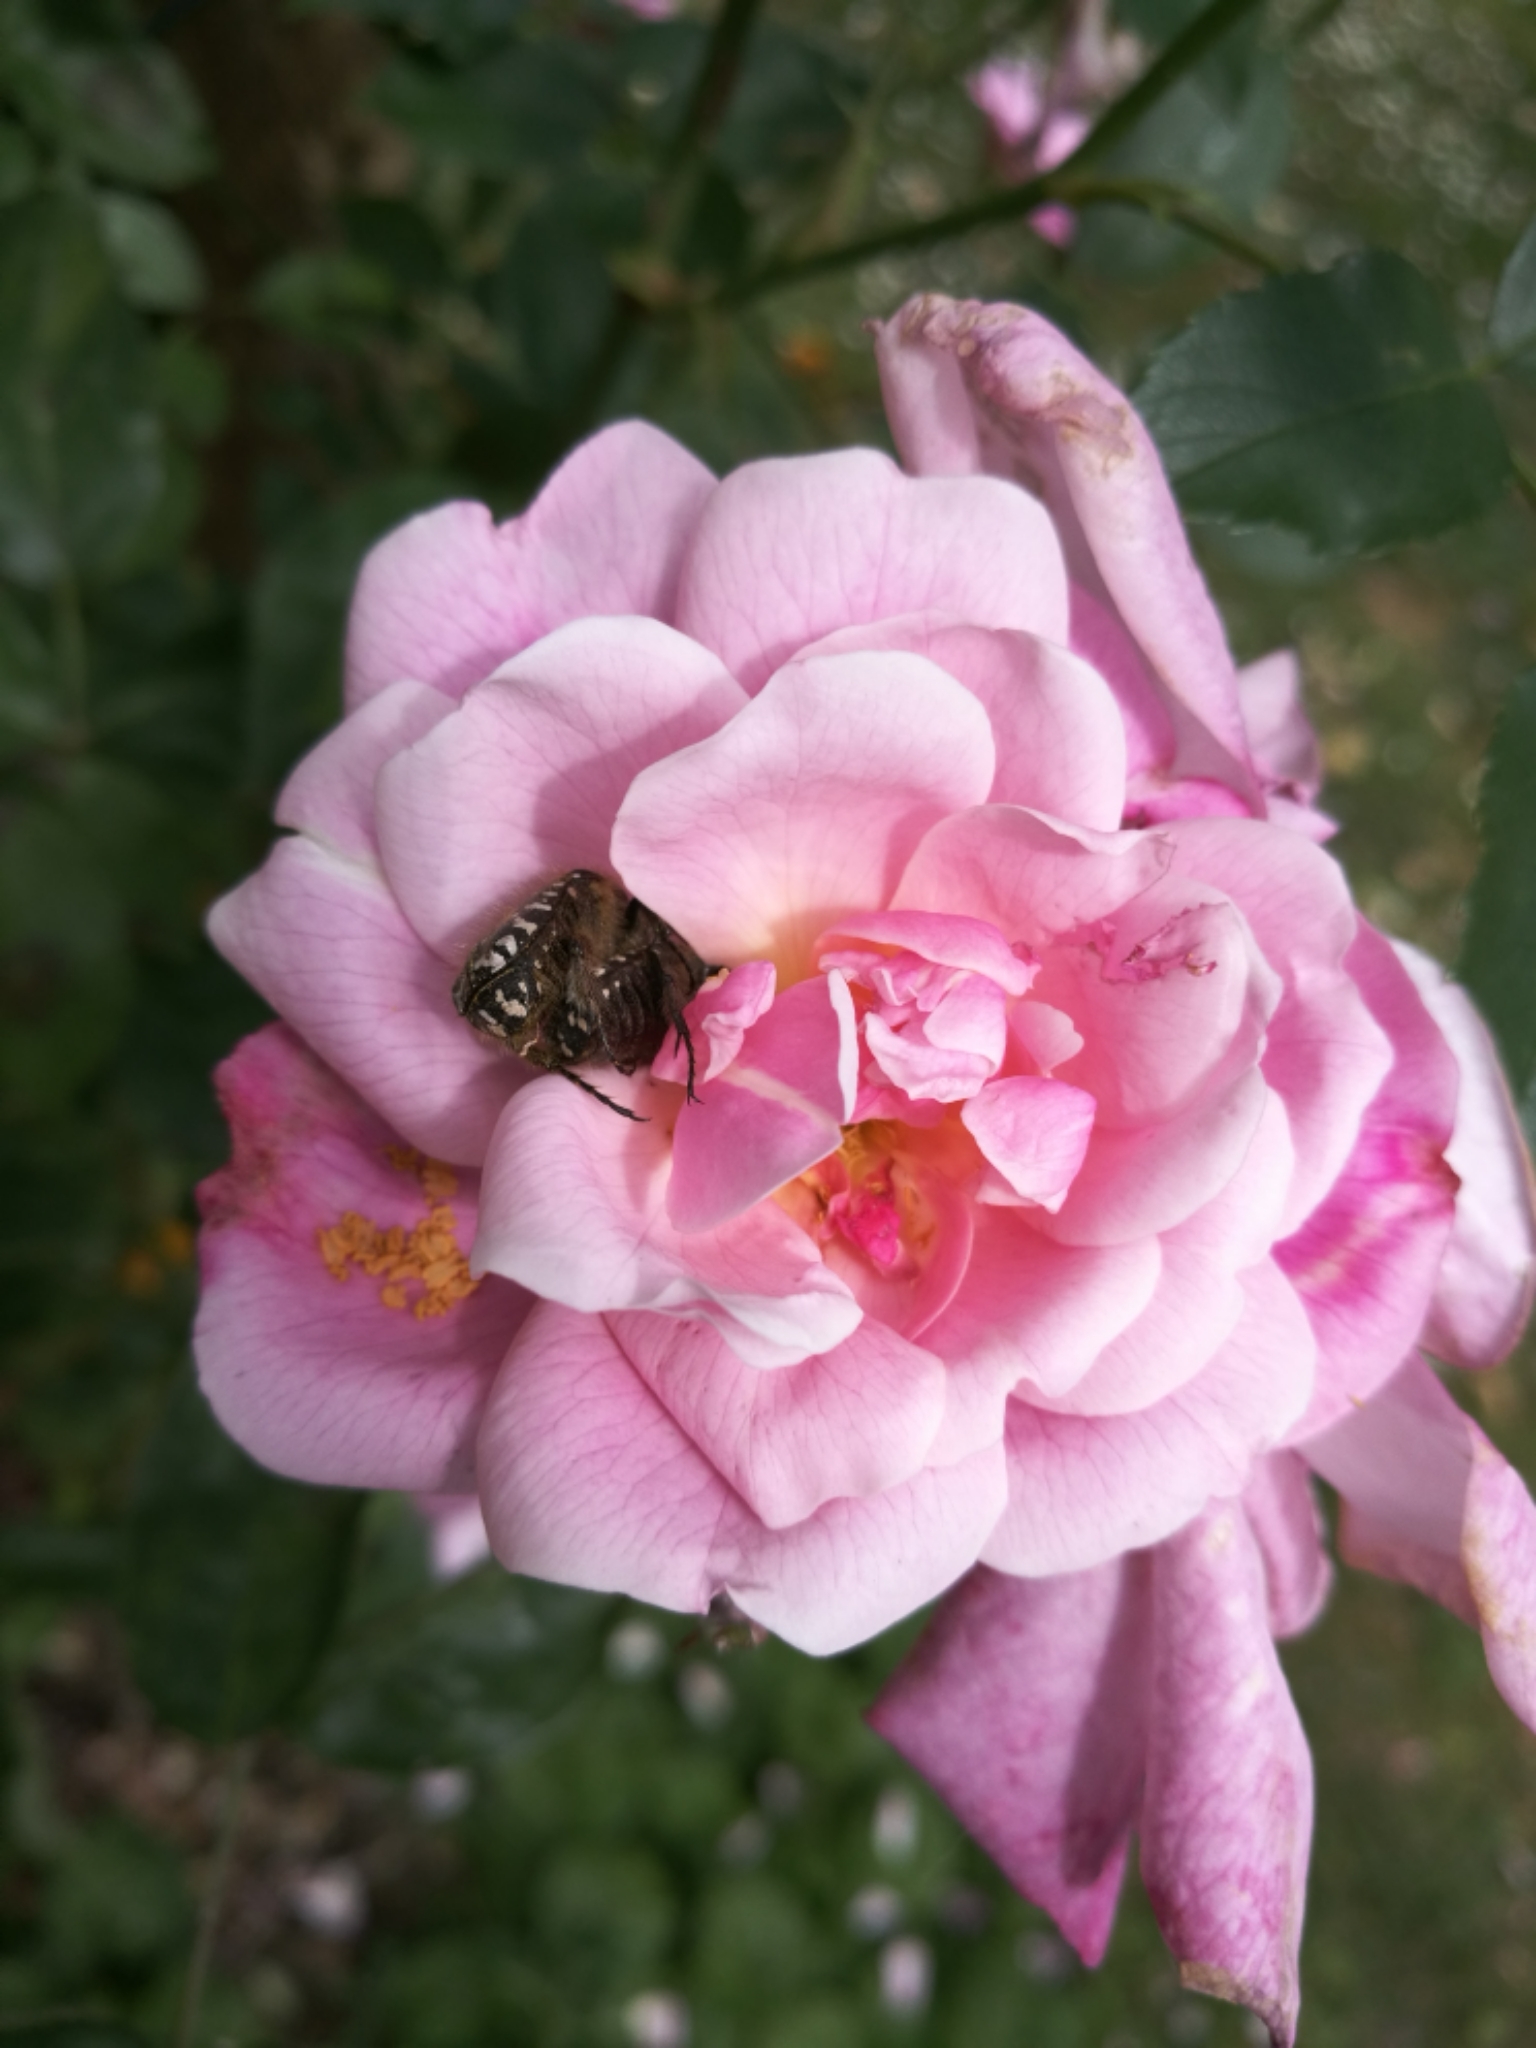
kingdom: Animalia
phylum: Arthropoda
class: Insecta
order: Coleoptera
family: Scarabaeidae
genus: Oxythyrea
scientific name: Oxythyrea funesta
